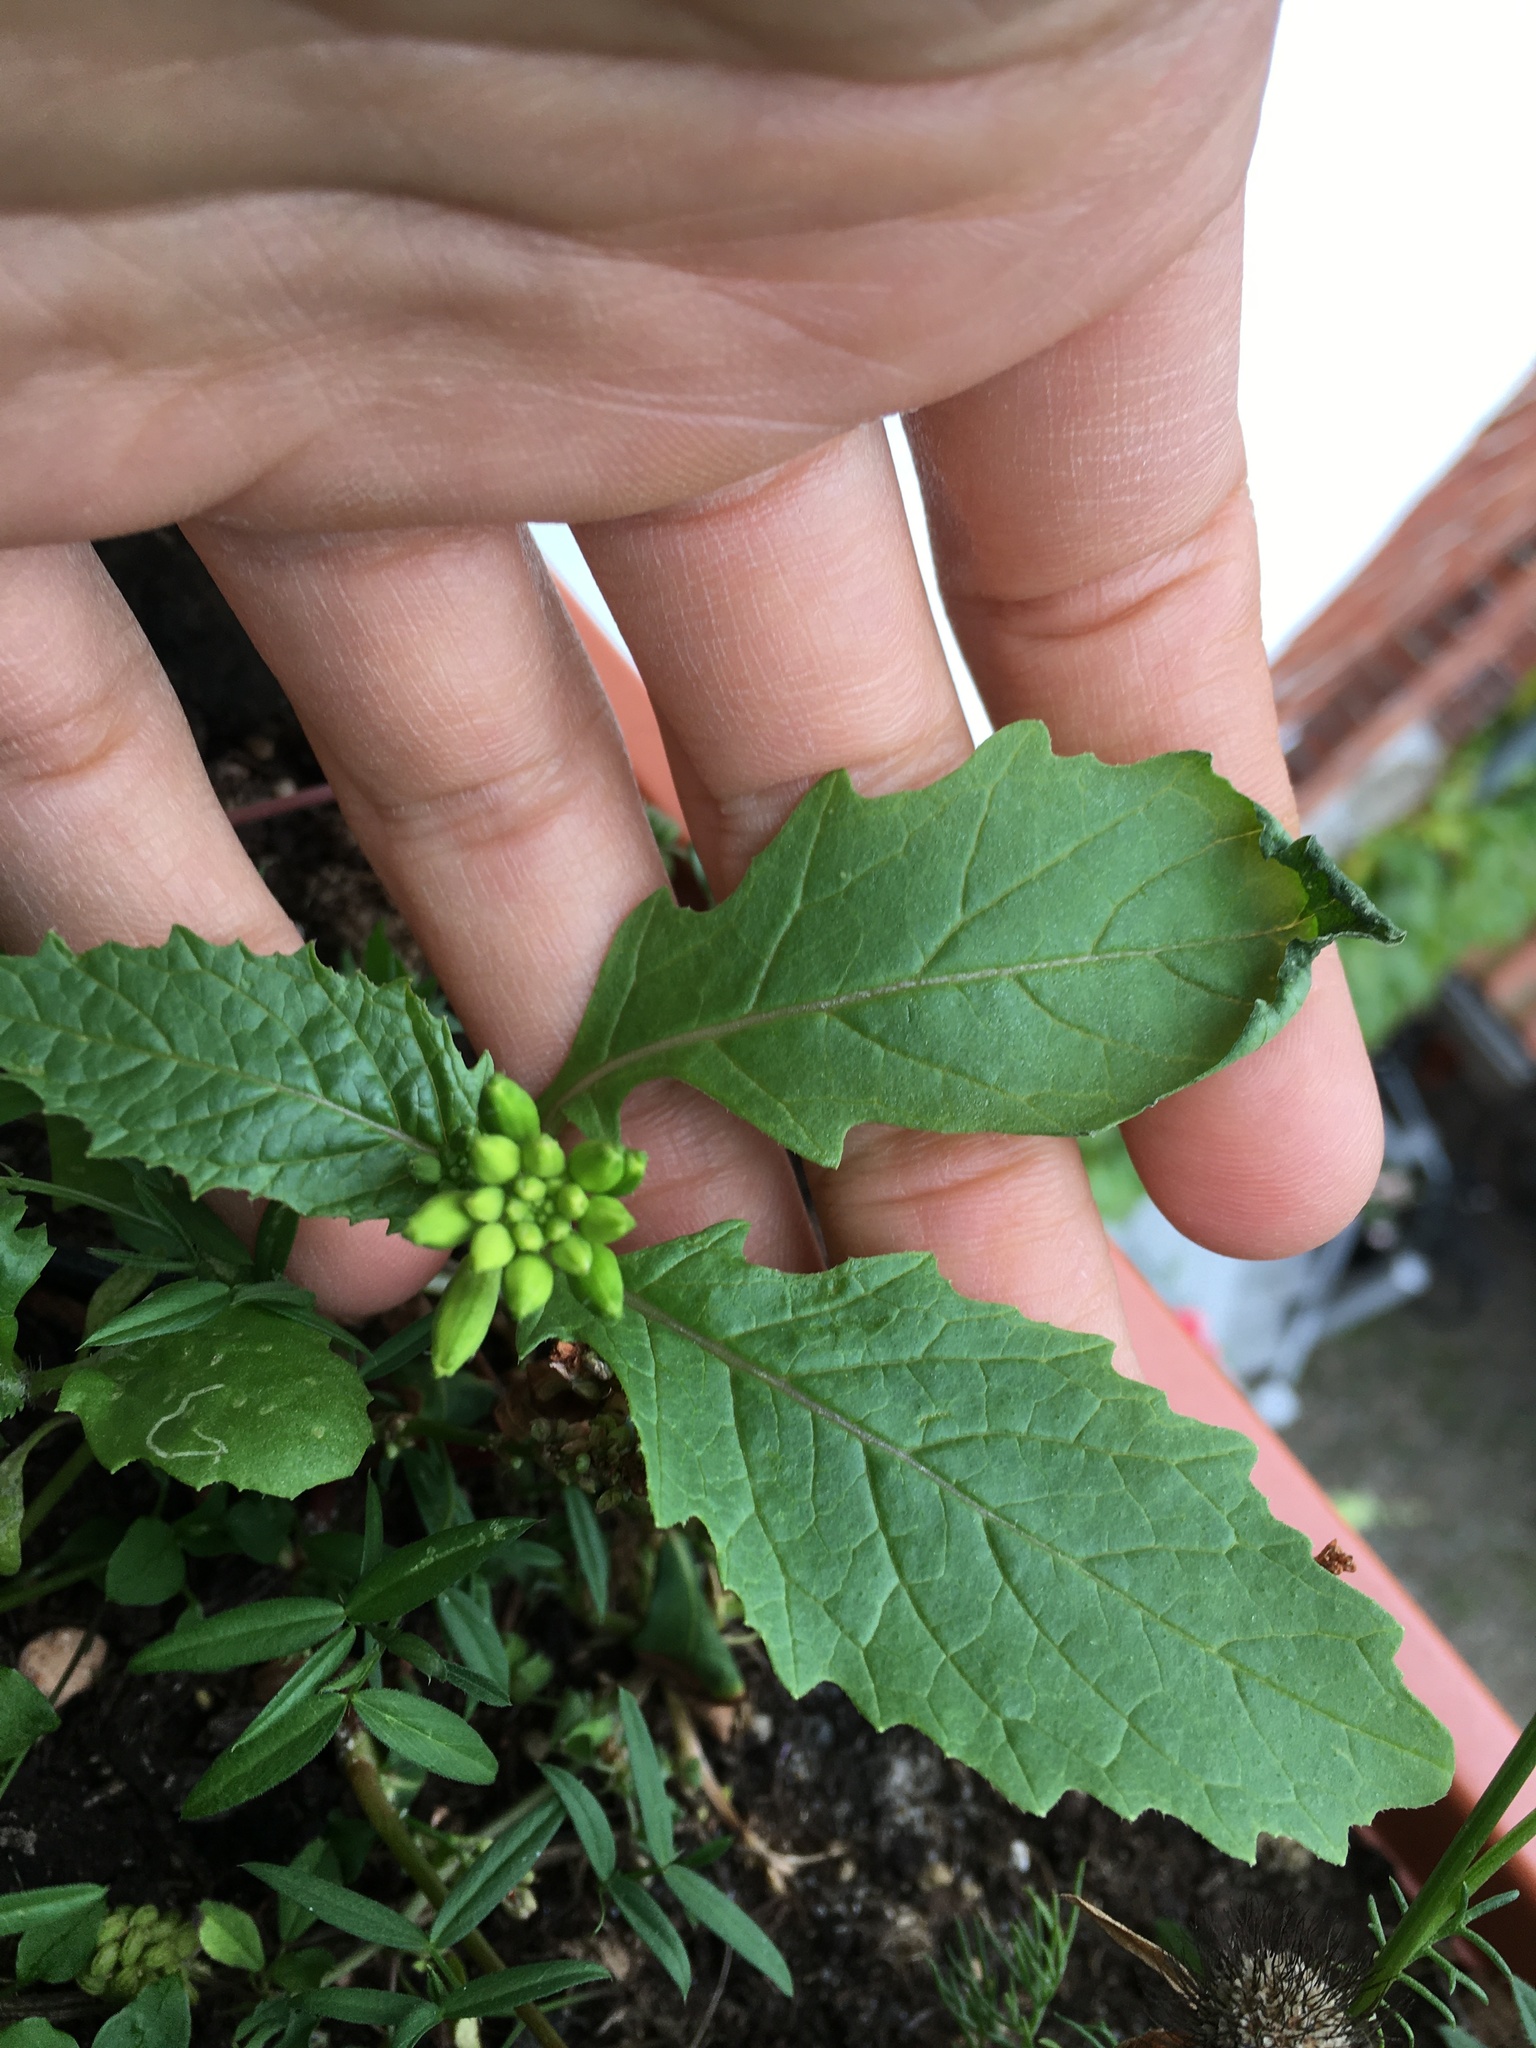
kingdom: Plantae
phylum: Tracheophyta
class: Magnoliopsida
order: Brassicales
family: Brassicaceae
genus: Sinapis
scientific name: Sinapis arvensis
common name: Charlock
